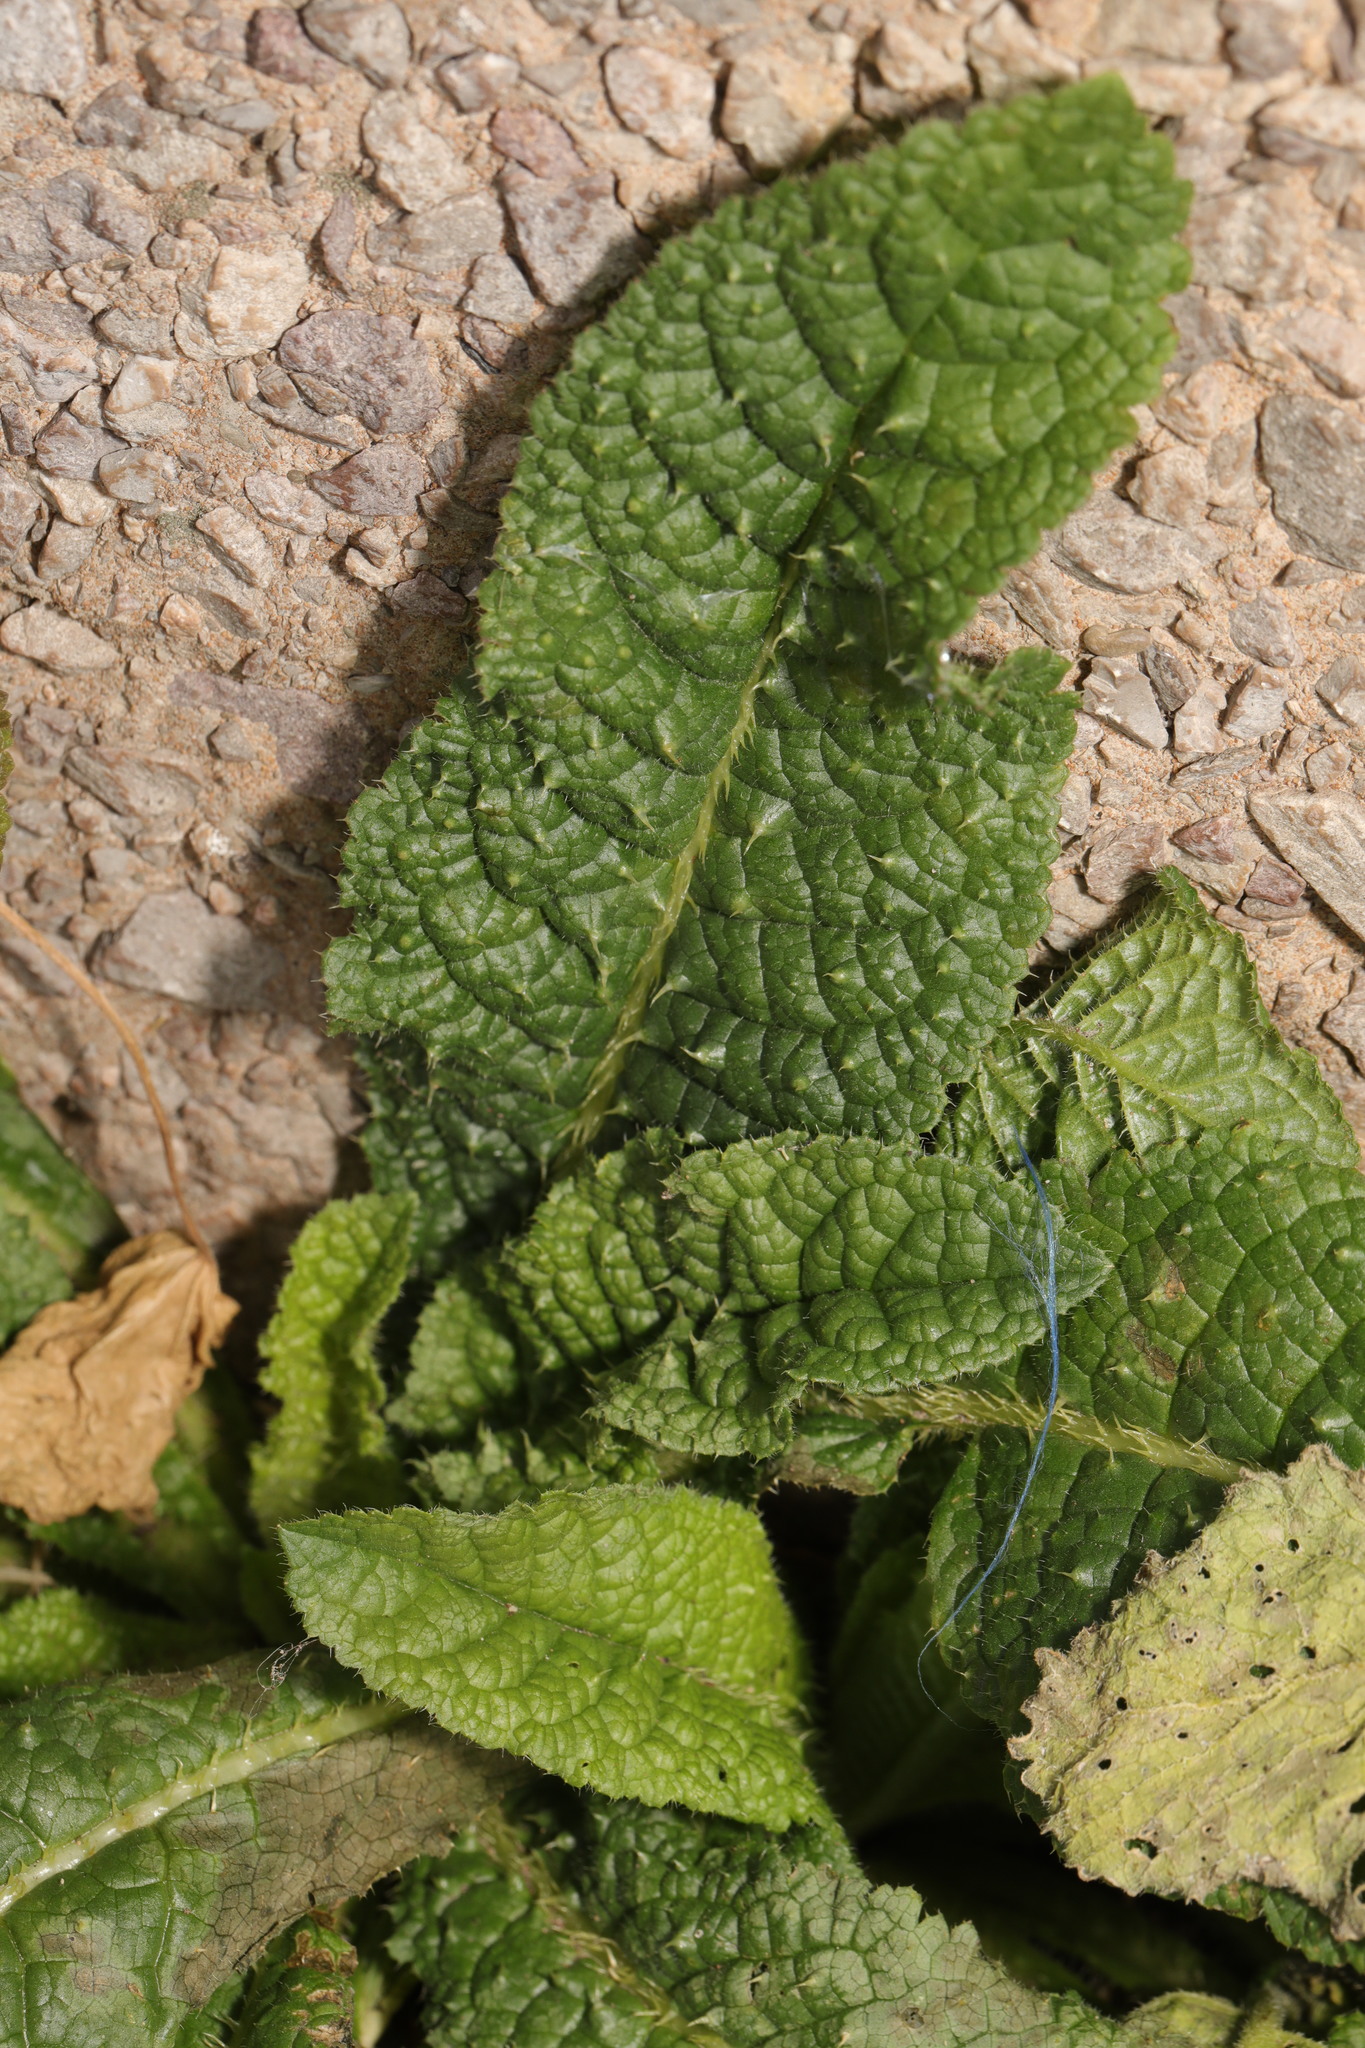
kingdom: Plantae
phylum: Tracheophyta
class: Magnoliopsida
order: Dipsacales
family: Caprifoliaceae
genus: Dipsacus
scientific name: Dipsacus fullonum
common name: Teasel
